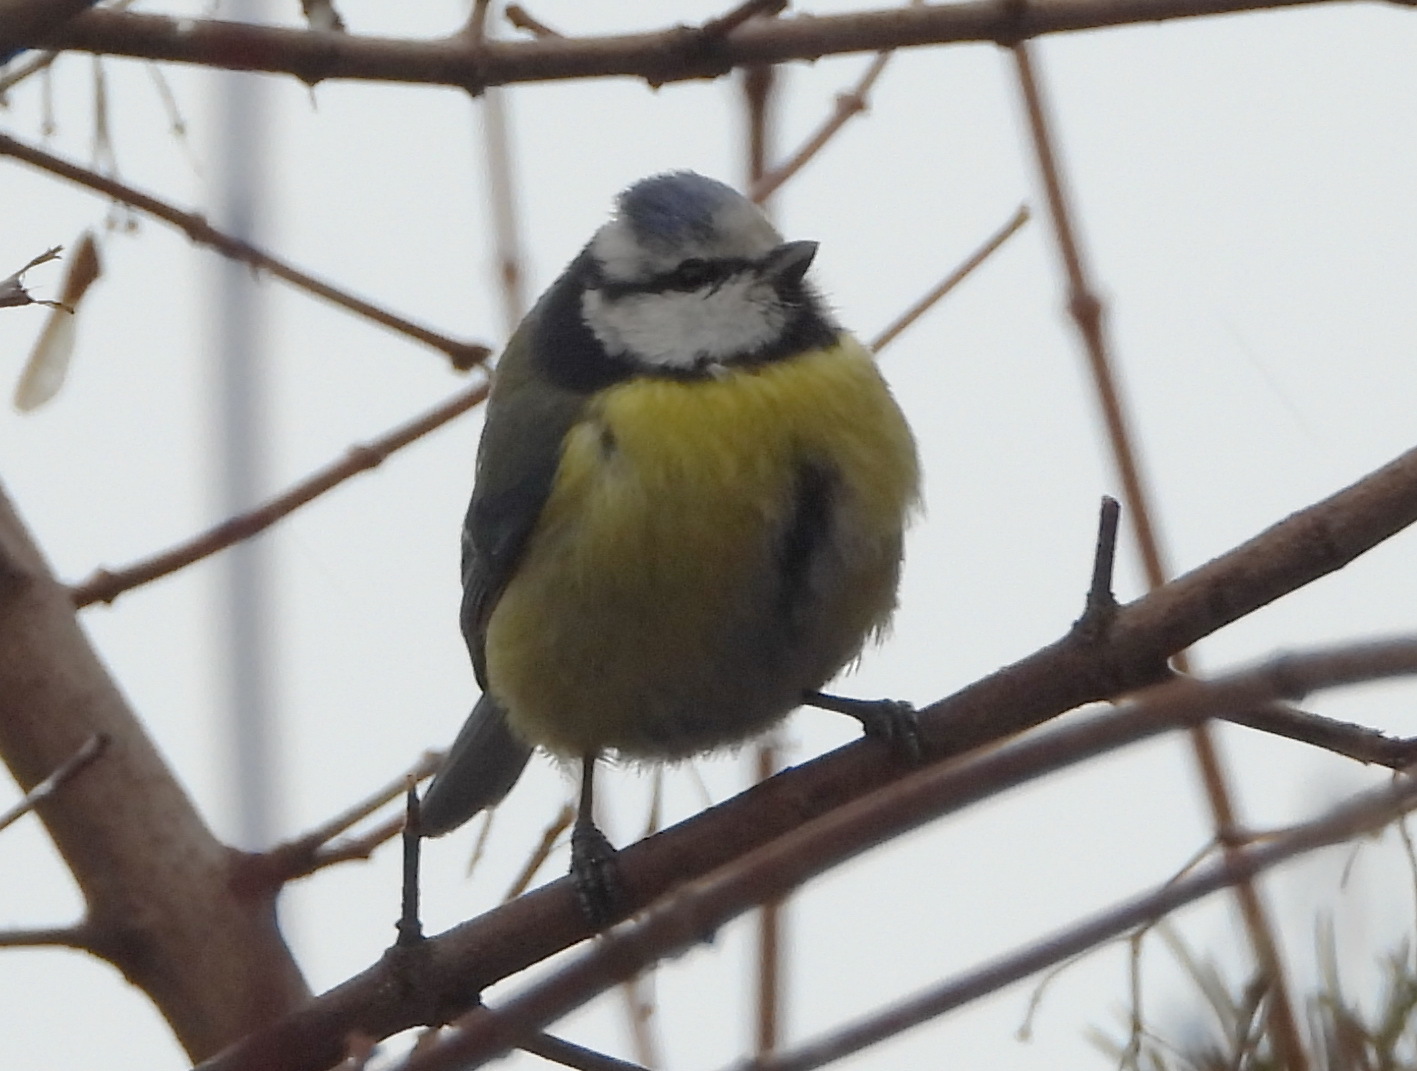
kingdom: Animalia
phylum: Chordata
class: Aves
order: Passeriformes
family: Paridae
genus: Cyanistes
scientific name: Cyanistes caeruleus
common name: Eurasian blue tit
